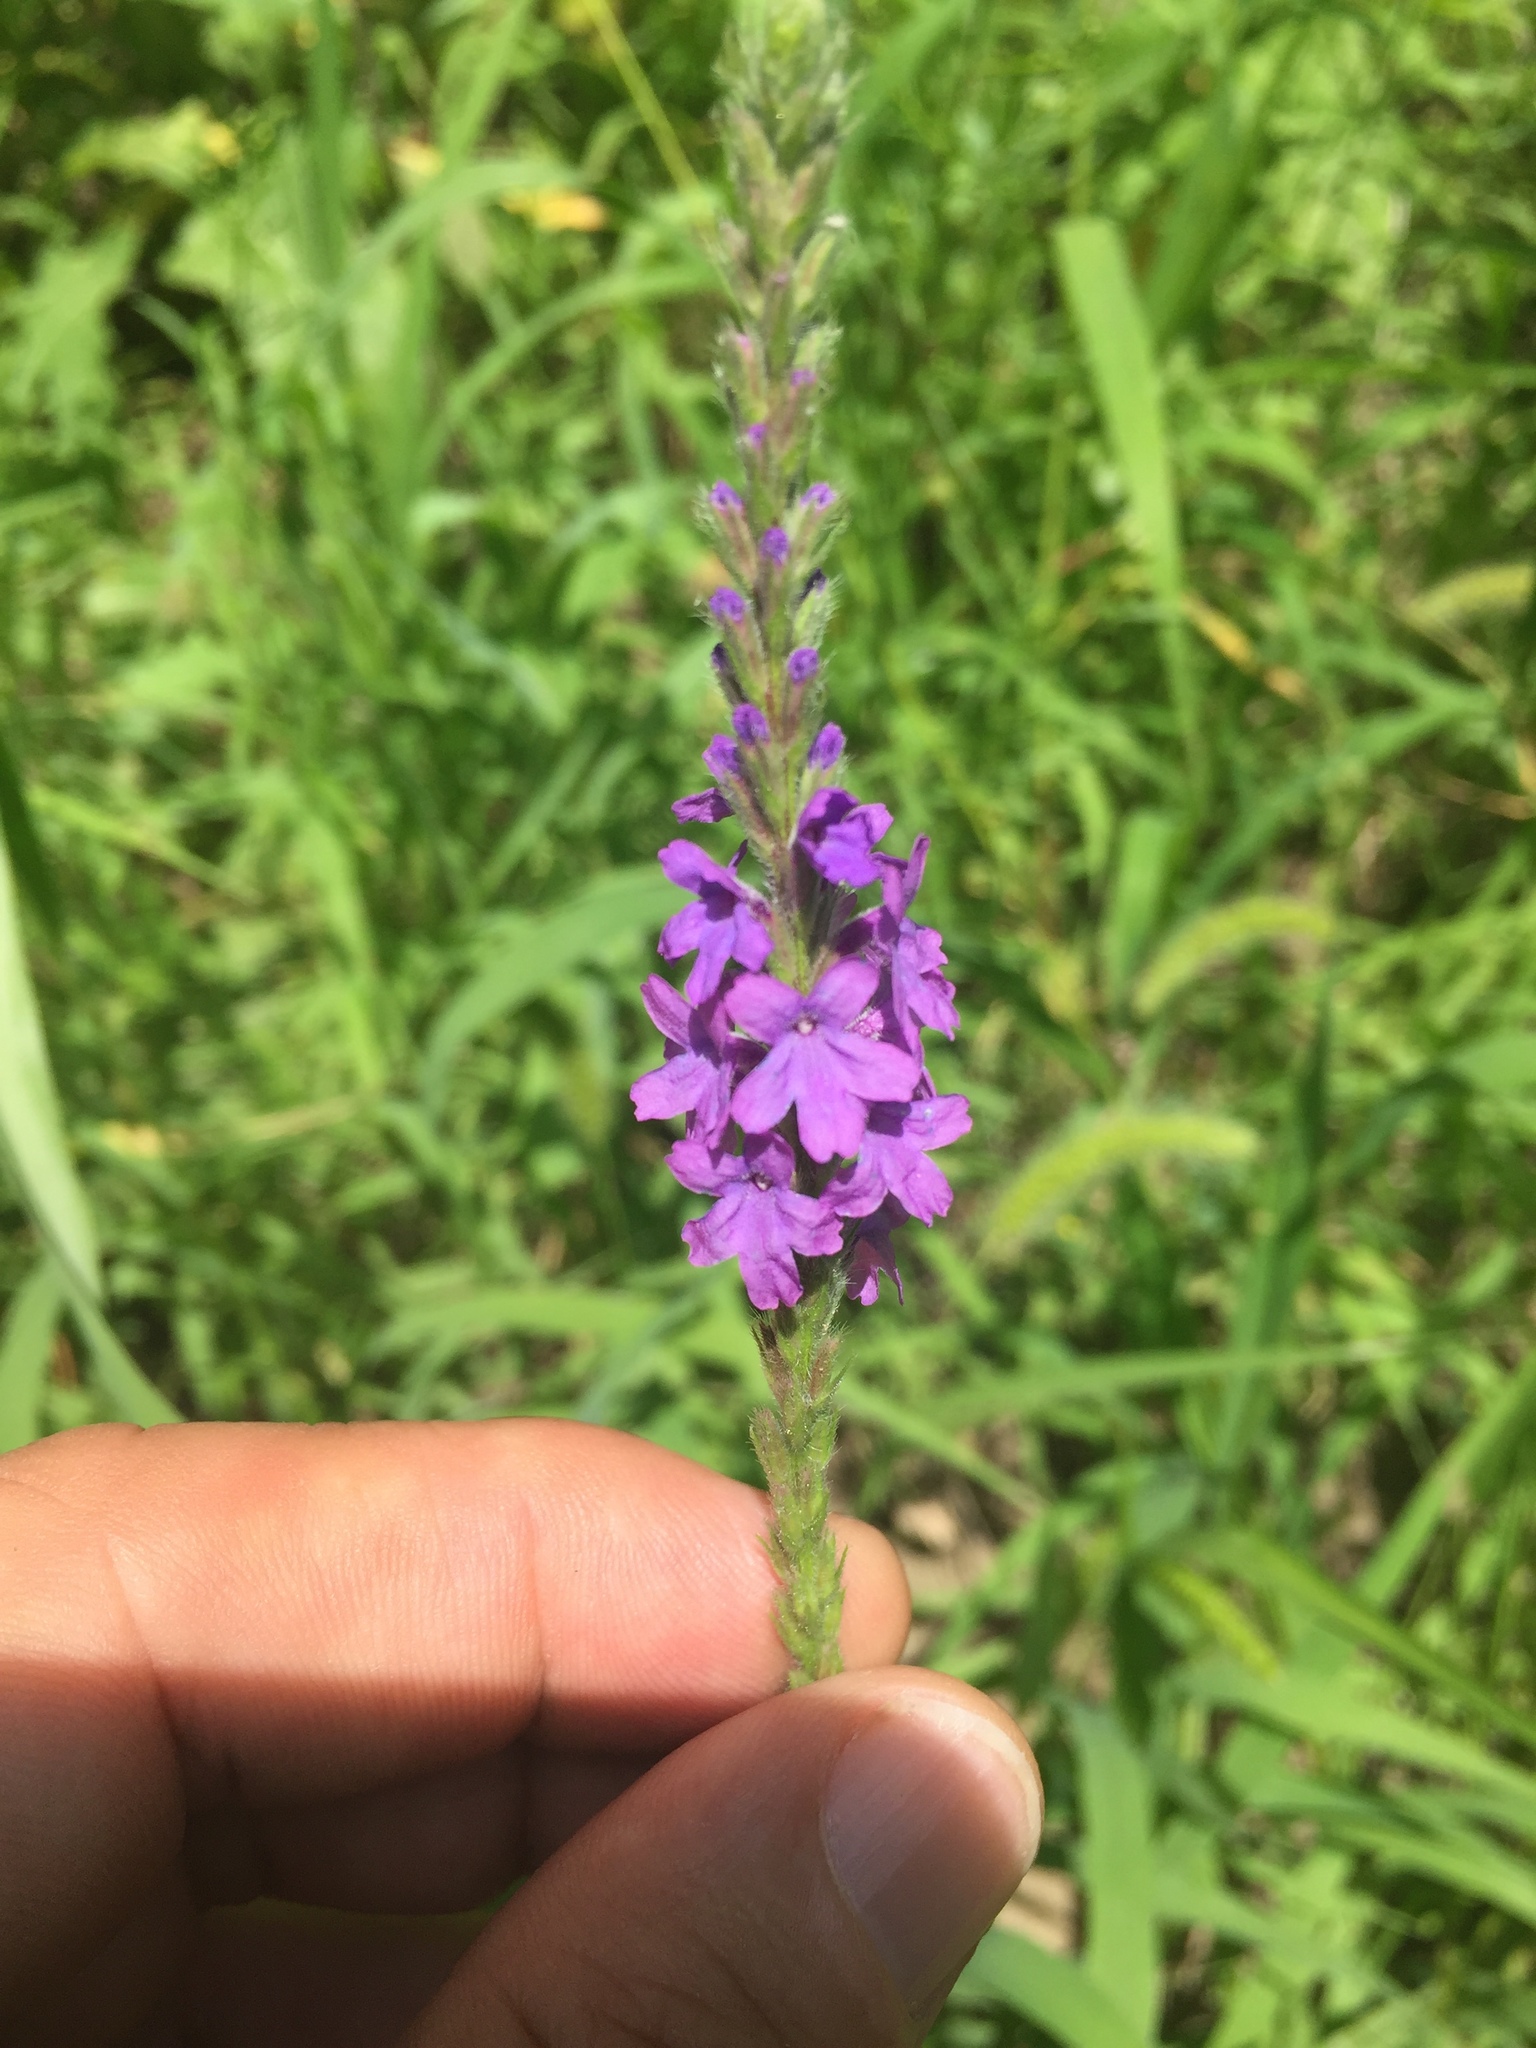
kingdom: Plantae
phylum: Tracheophyta
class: Magnoliopsida
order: Lamiales
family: Verbenaceae
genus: Verbena
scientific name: Verbena stricta
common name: Hoary vervain
